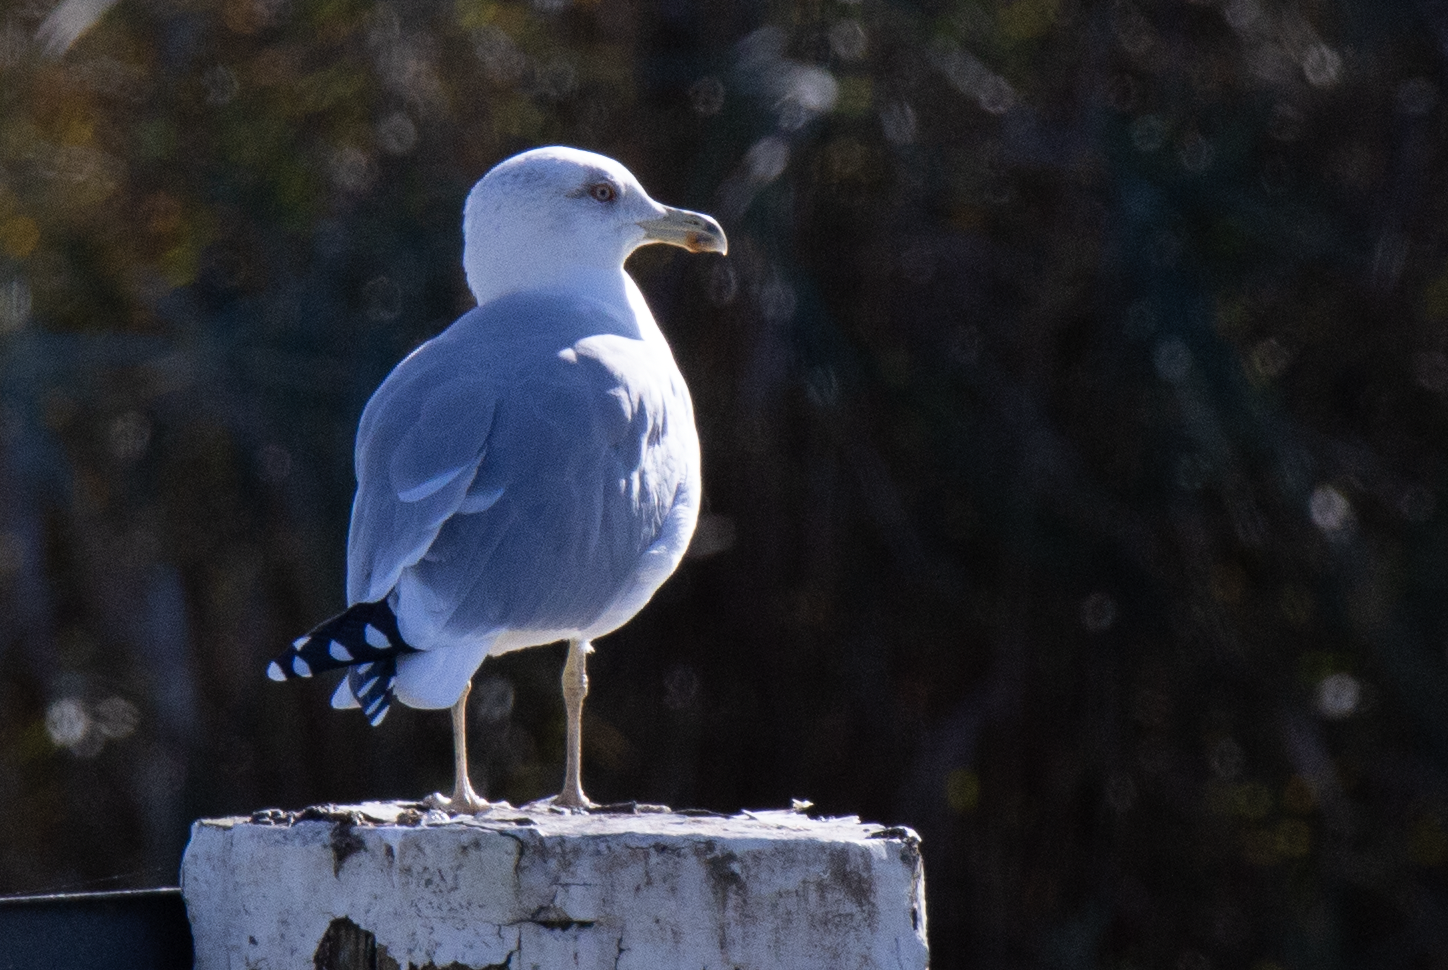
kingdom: Animalia
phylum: Chordata
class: Aves
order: Charadriiformes
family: Laridae
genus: Larus
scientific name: Larus michahellis
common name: Yellow-legged gull
